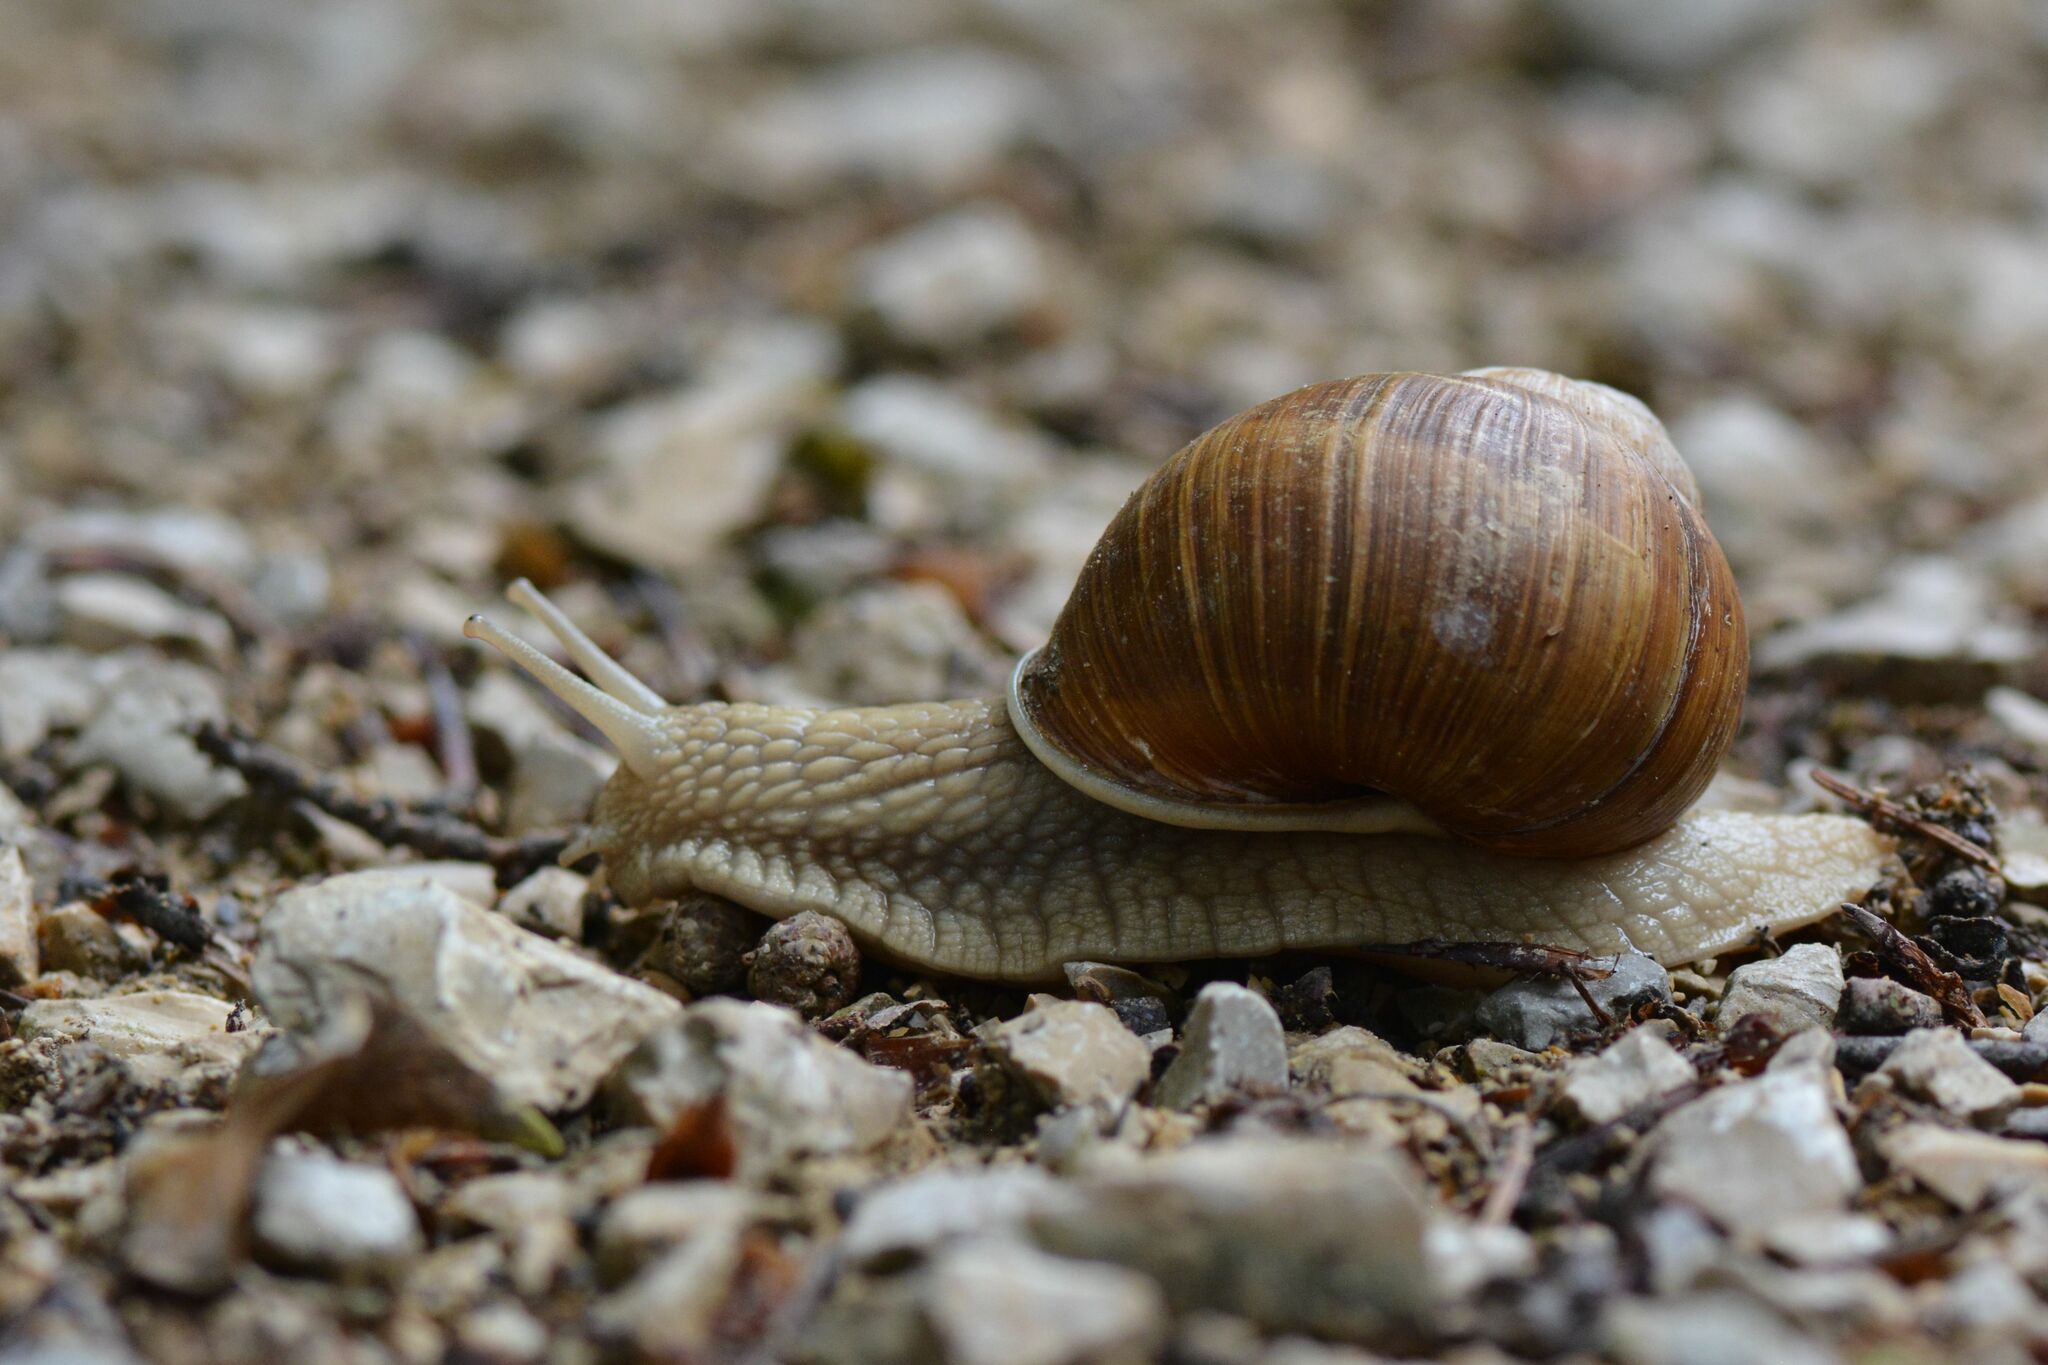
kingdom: Animalia
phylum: Mollusca
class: Gastropoda
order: Stylommatophora
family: Helicidae
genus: Helix
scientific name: Helix pomatia
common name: Roman snail
